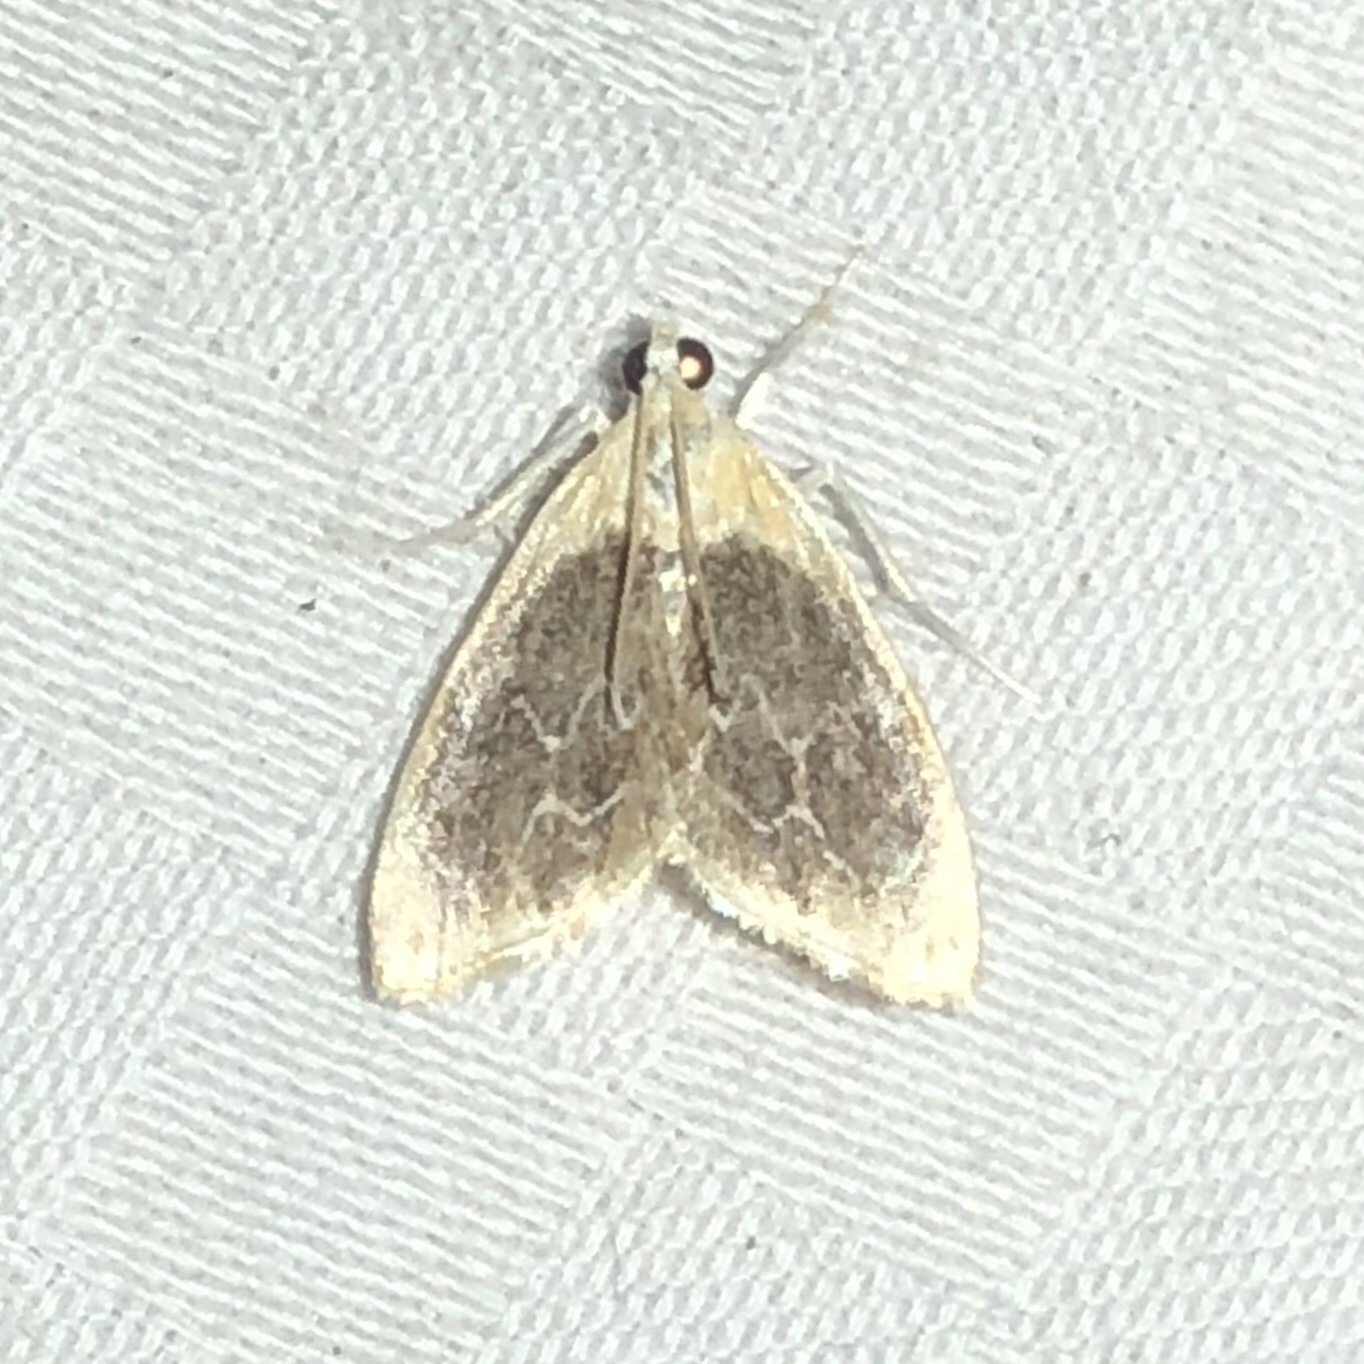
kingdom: Animalia
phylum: Arthropoda
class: Insecta
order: Lepidoptera
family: Crambidae
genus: Glaphyria
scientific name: Glaphyria fulminalis
